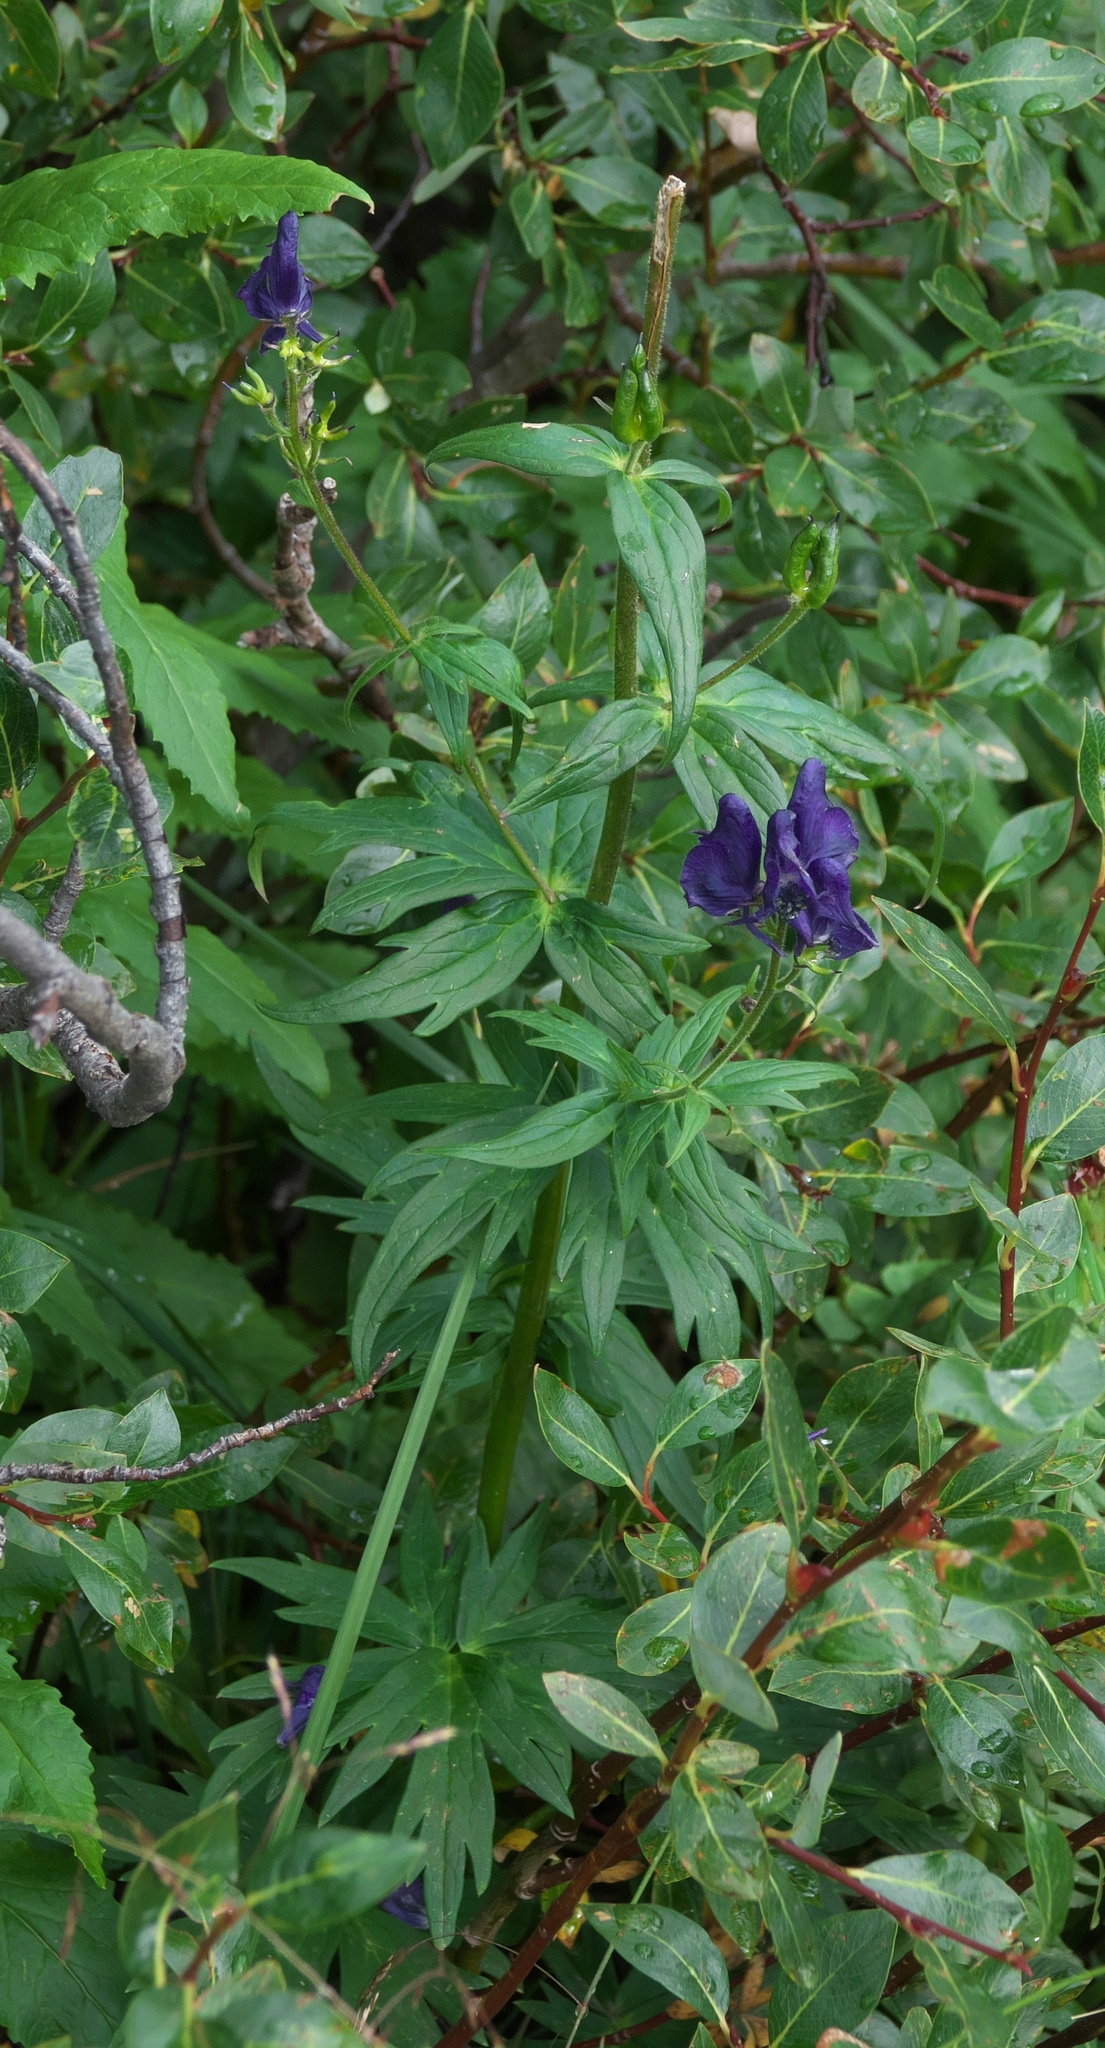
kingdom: Plantae
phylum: Tracheophyta
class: Magnoliopsida
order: Ranunculales
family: Ranunculaceae
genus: Aconitum
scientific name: Aconitum columbianum
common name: Columbia aconite
